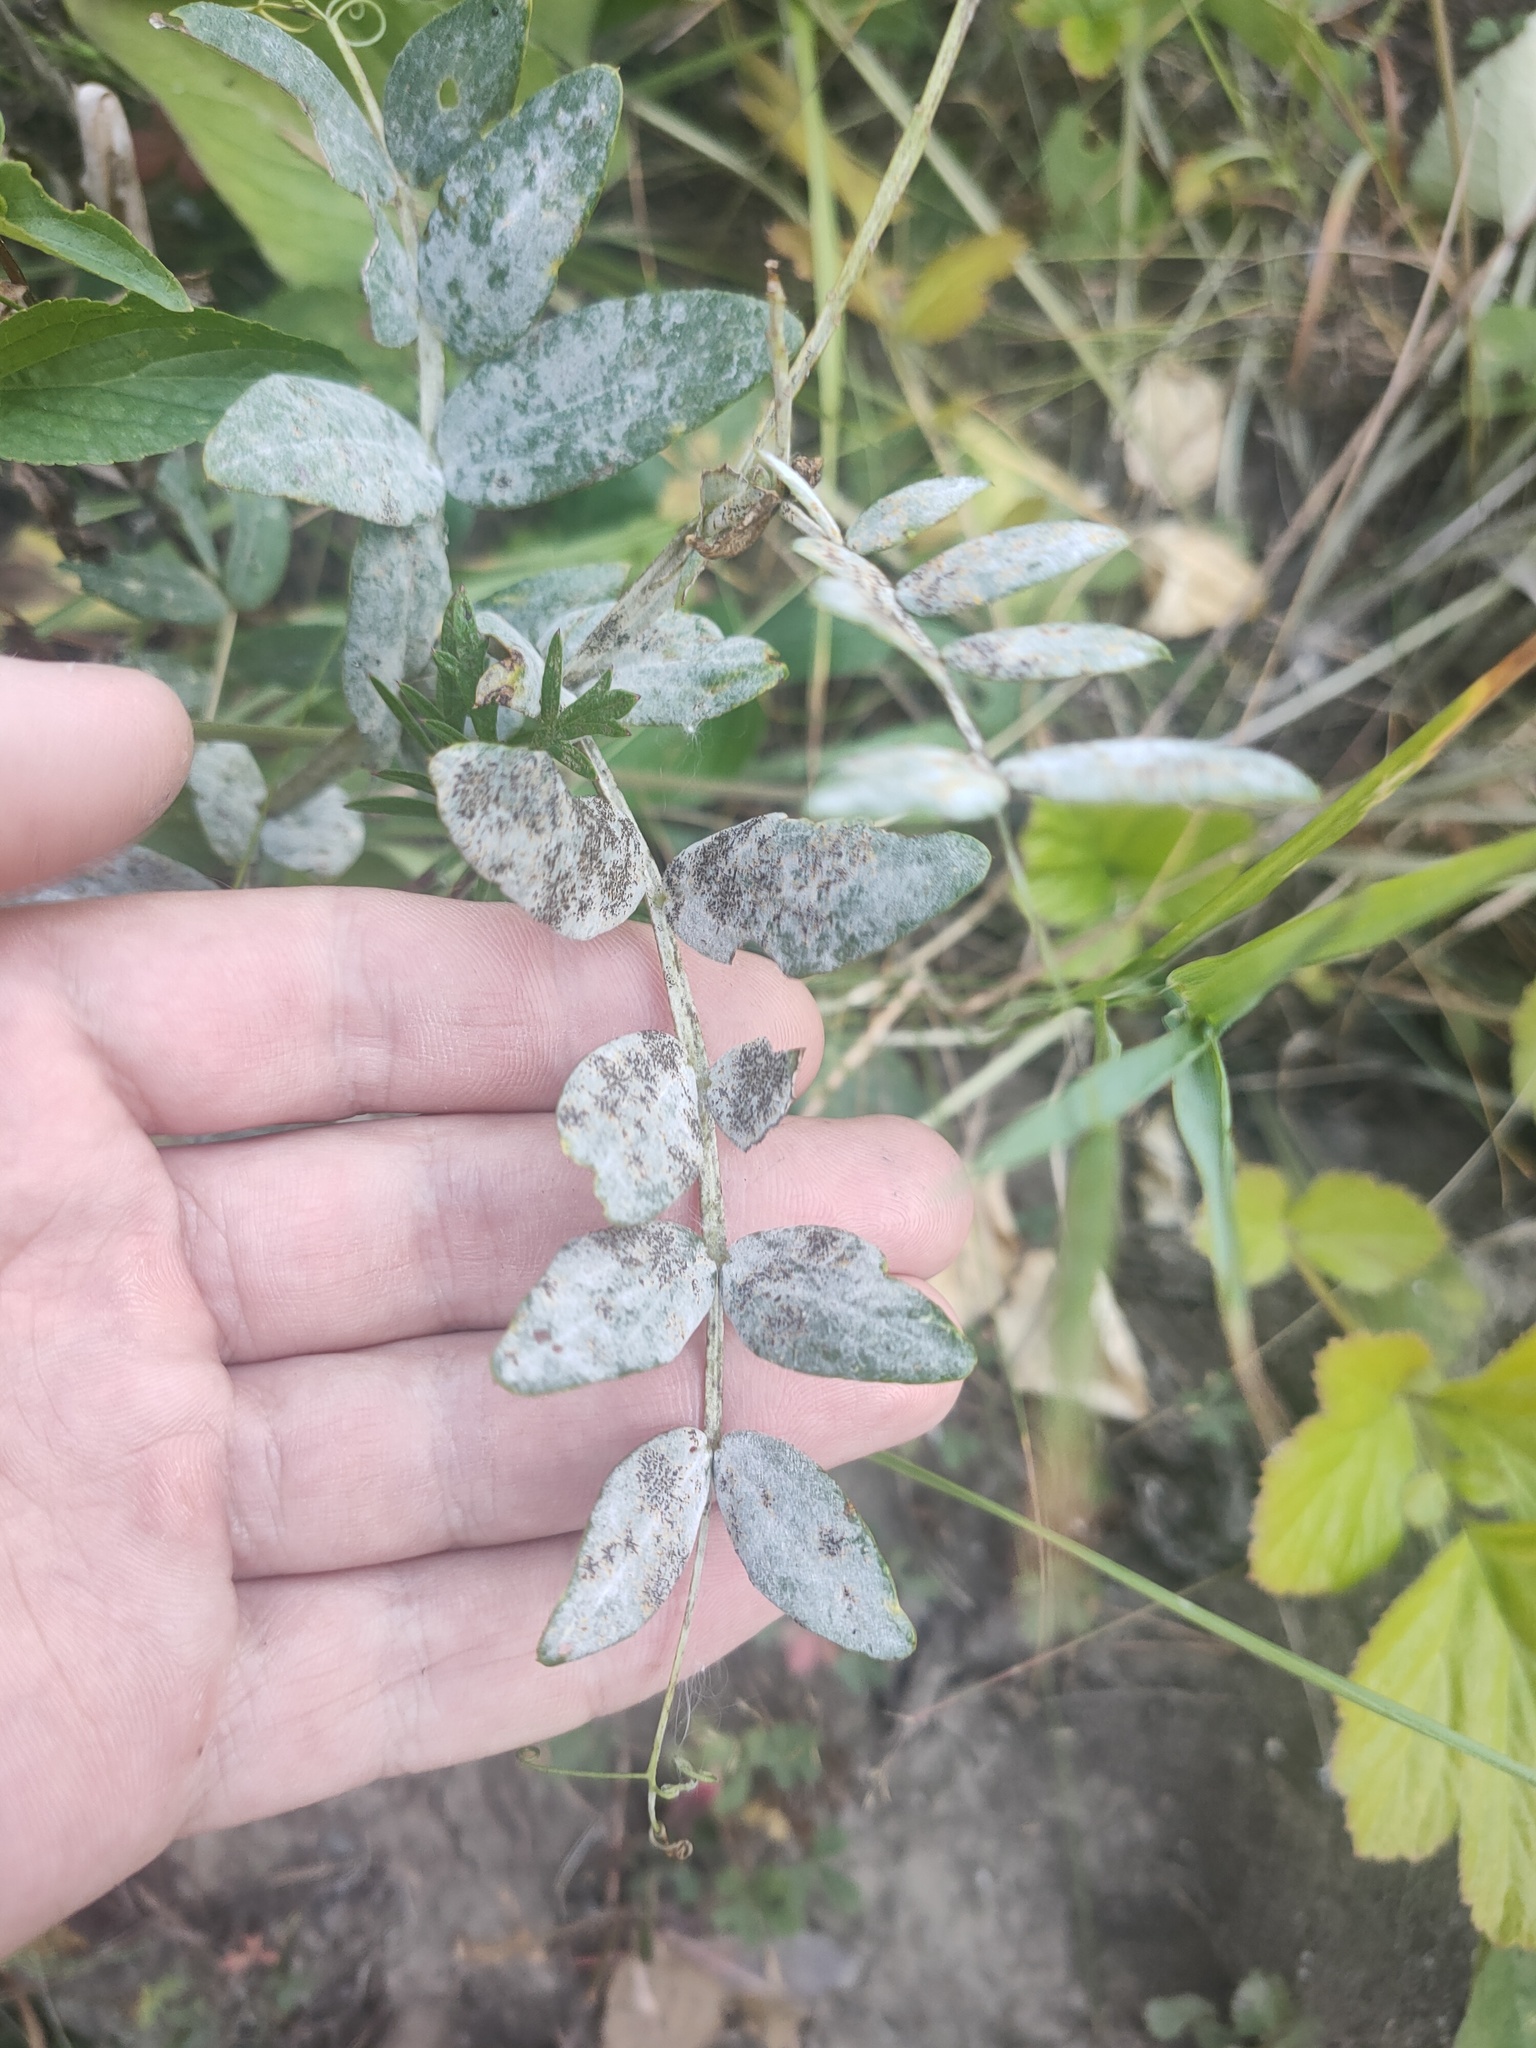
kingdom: Plantae
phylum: Tracheophyta
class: Magnoliopsida
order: Fabales
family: Fabaceae
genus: Lathyrus
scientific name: Lathyrus pisiformis
